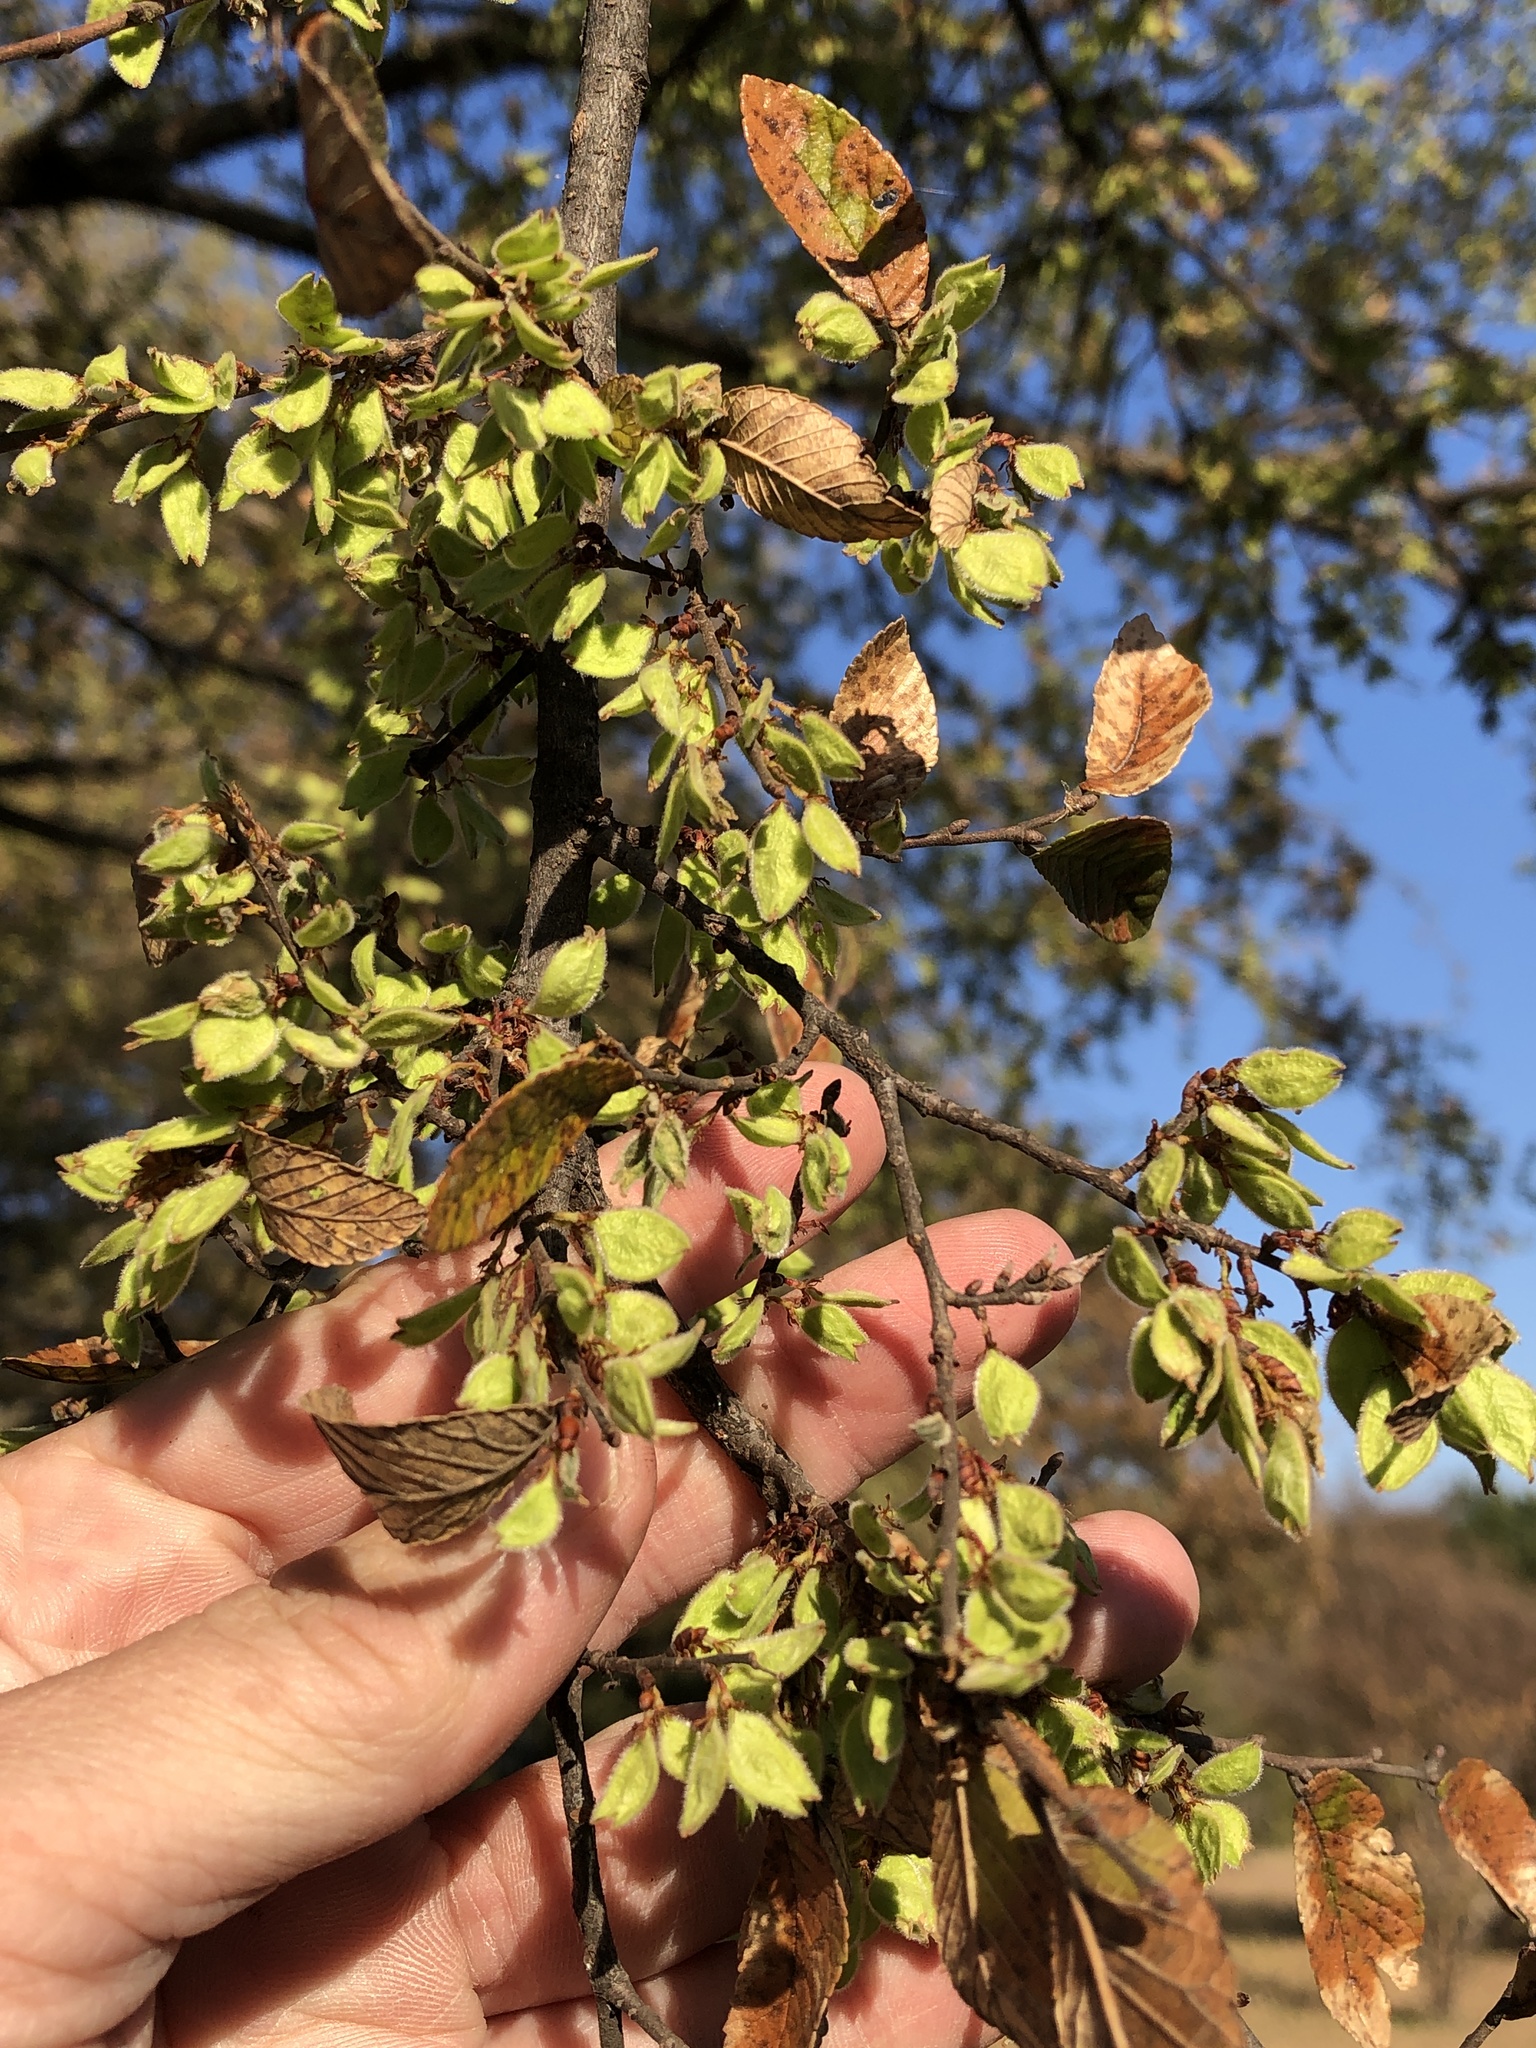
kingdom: Plantae
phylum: Tracheophyta
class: Magnoliopsida
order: Rosales
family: Ulmaceae
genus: Ulmus
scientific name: Ulmus crassifolia
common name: Basket elm
